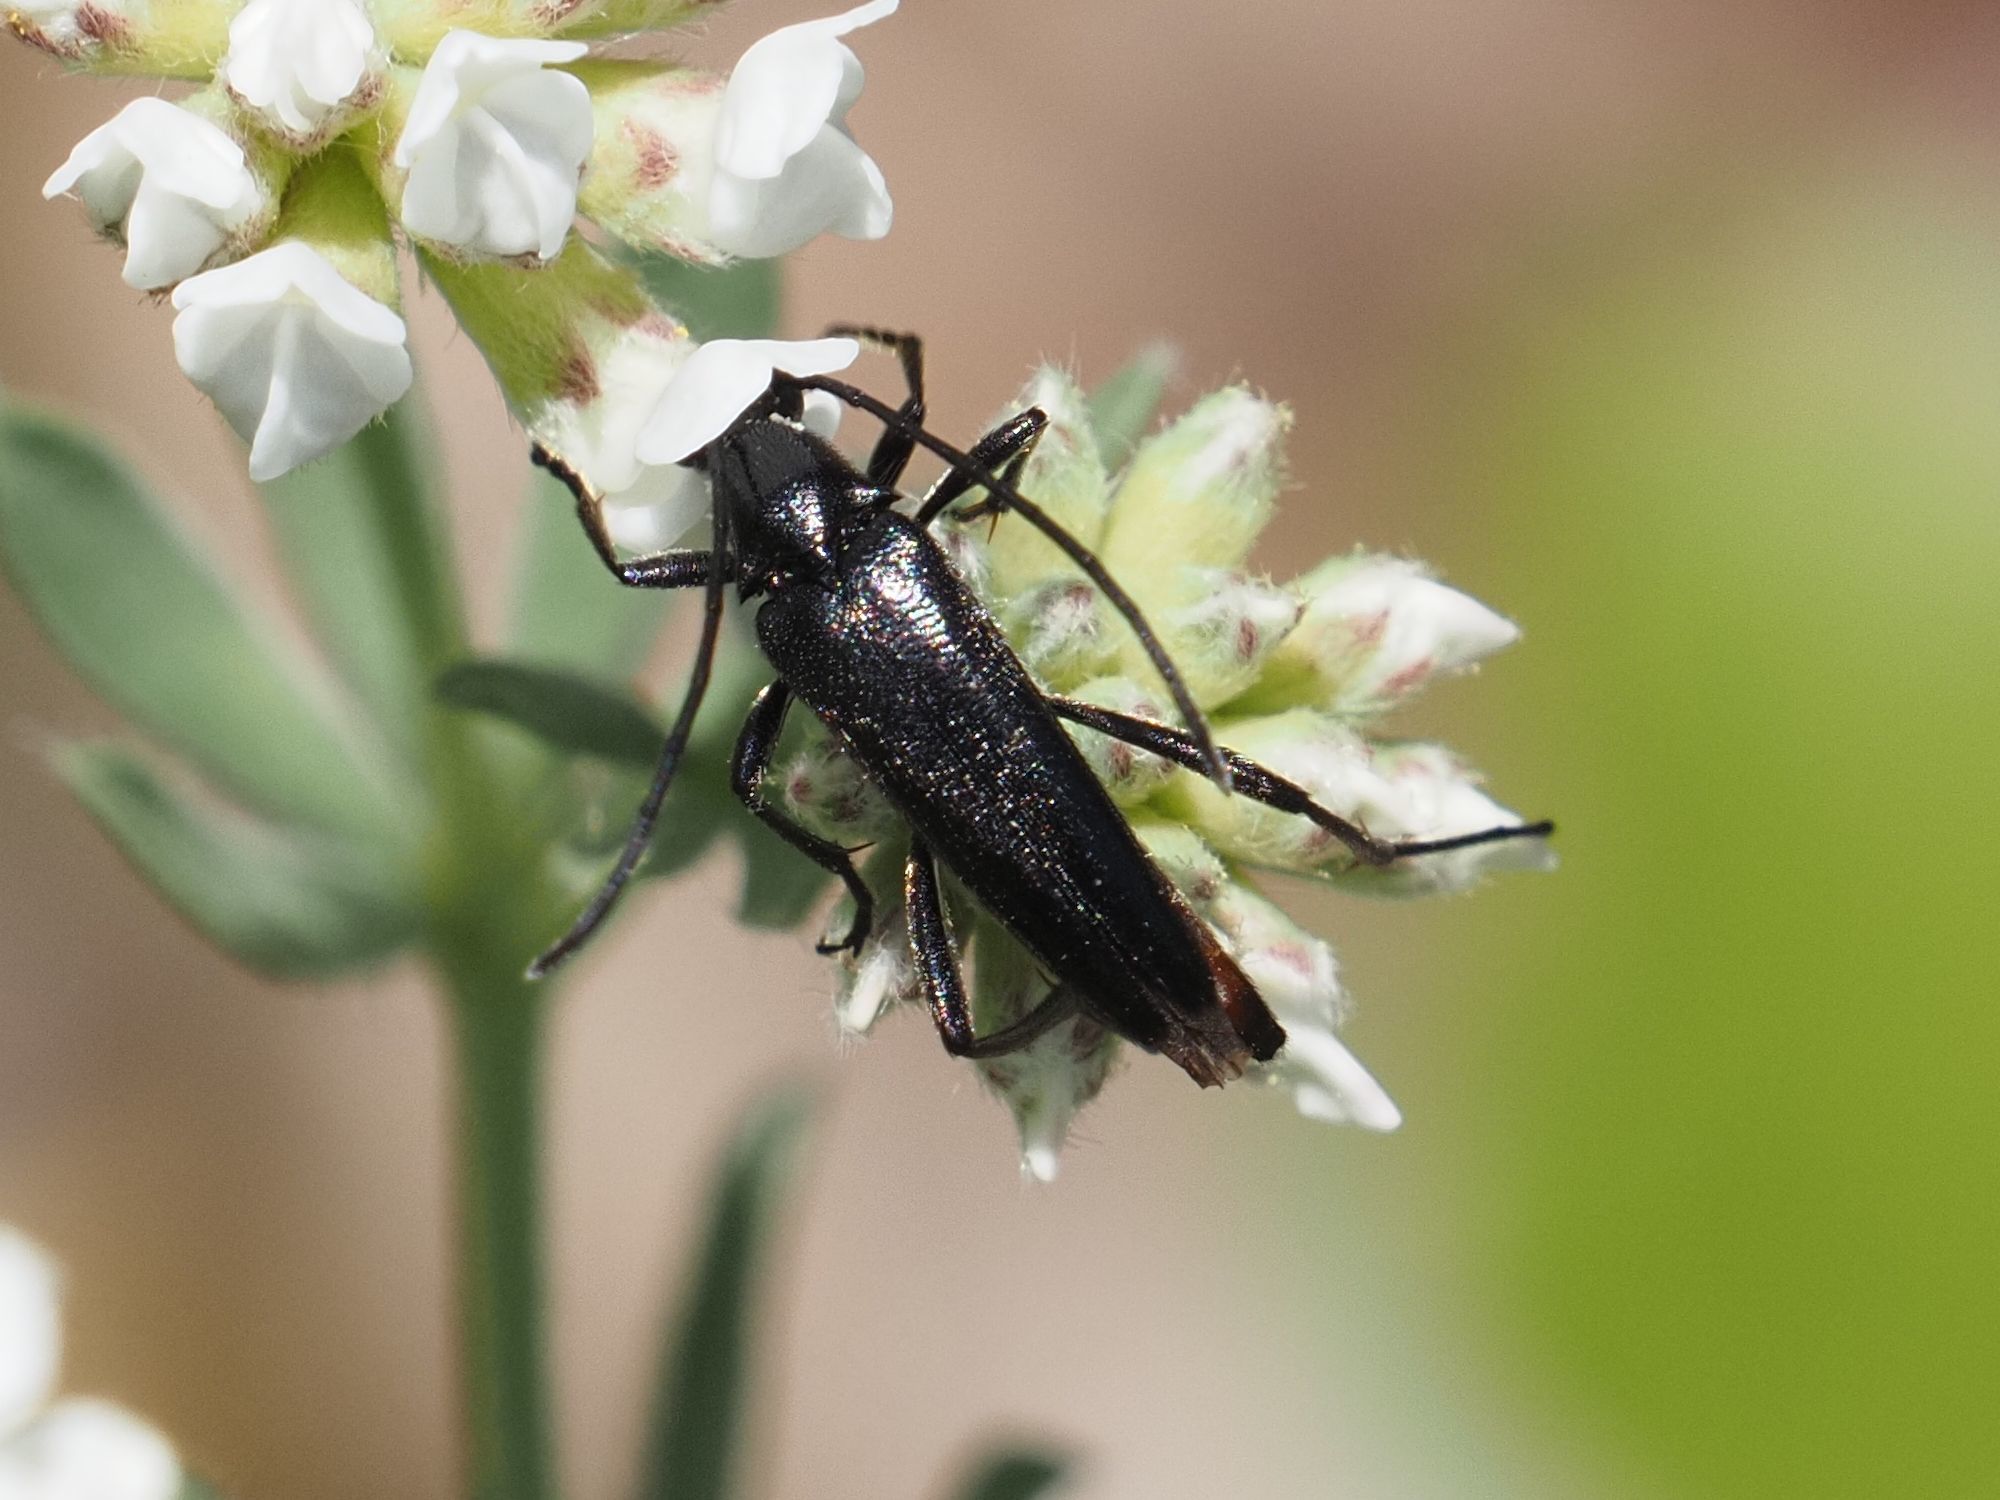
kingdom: Animalia
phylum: Arthropoda
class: Insecta
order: Coleoptera
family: Cerambycidae
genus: Stenurella
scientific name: Stenurella nigra
